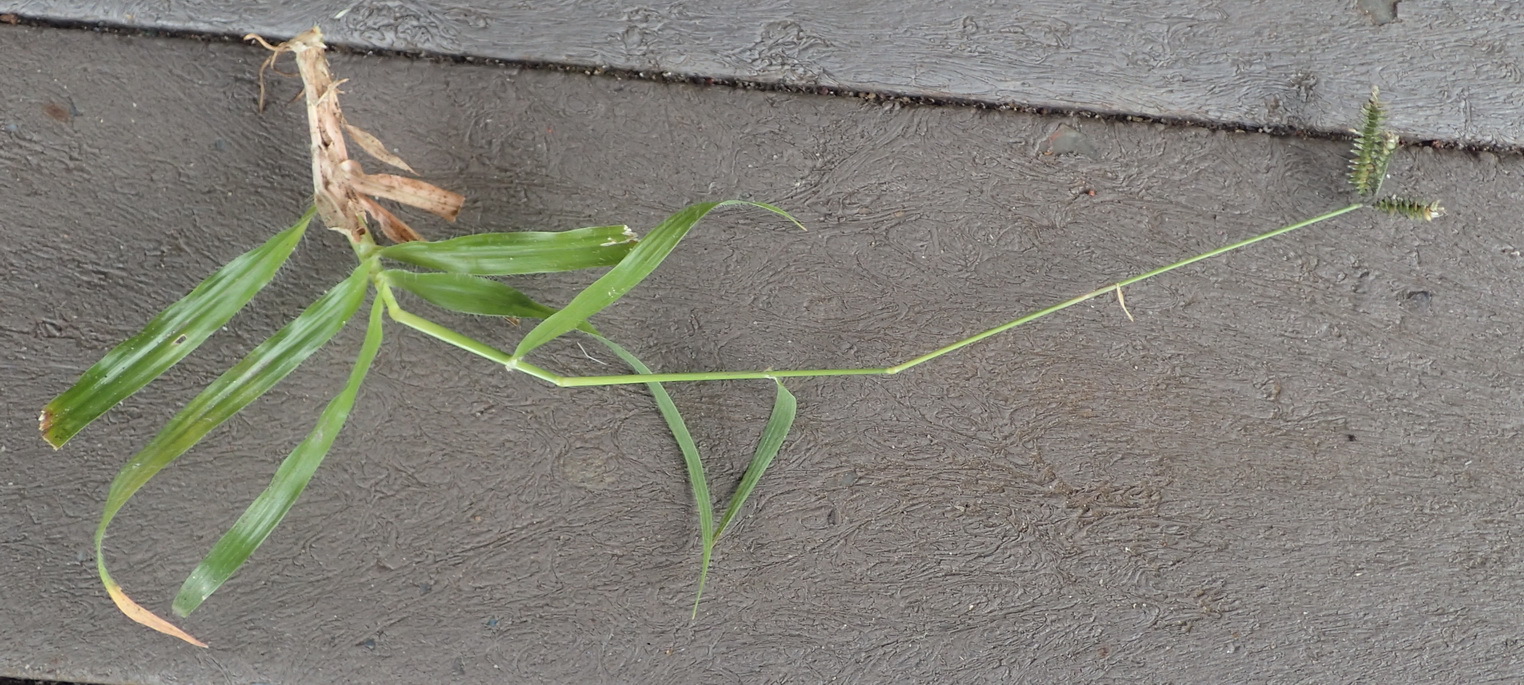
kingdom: Plantae
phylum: Tracheophyta
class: Liliopsida
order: Poales
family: Poaceae
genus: Dactyloctenium
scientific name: Dactyloctenium australe
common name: Durban grass
